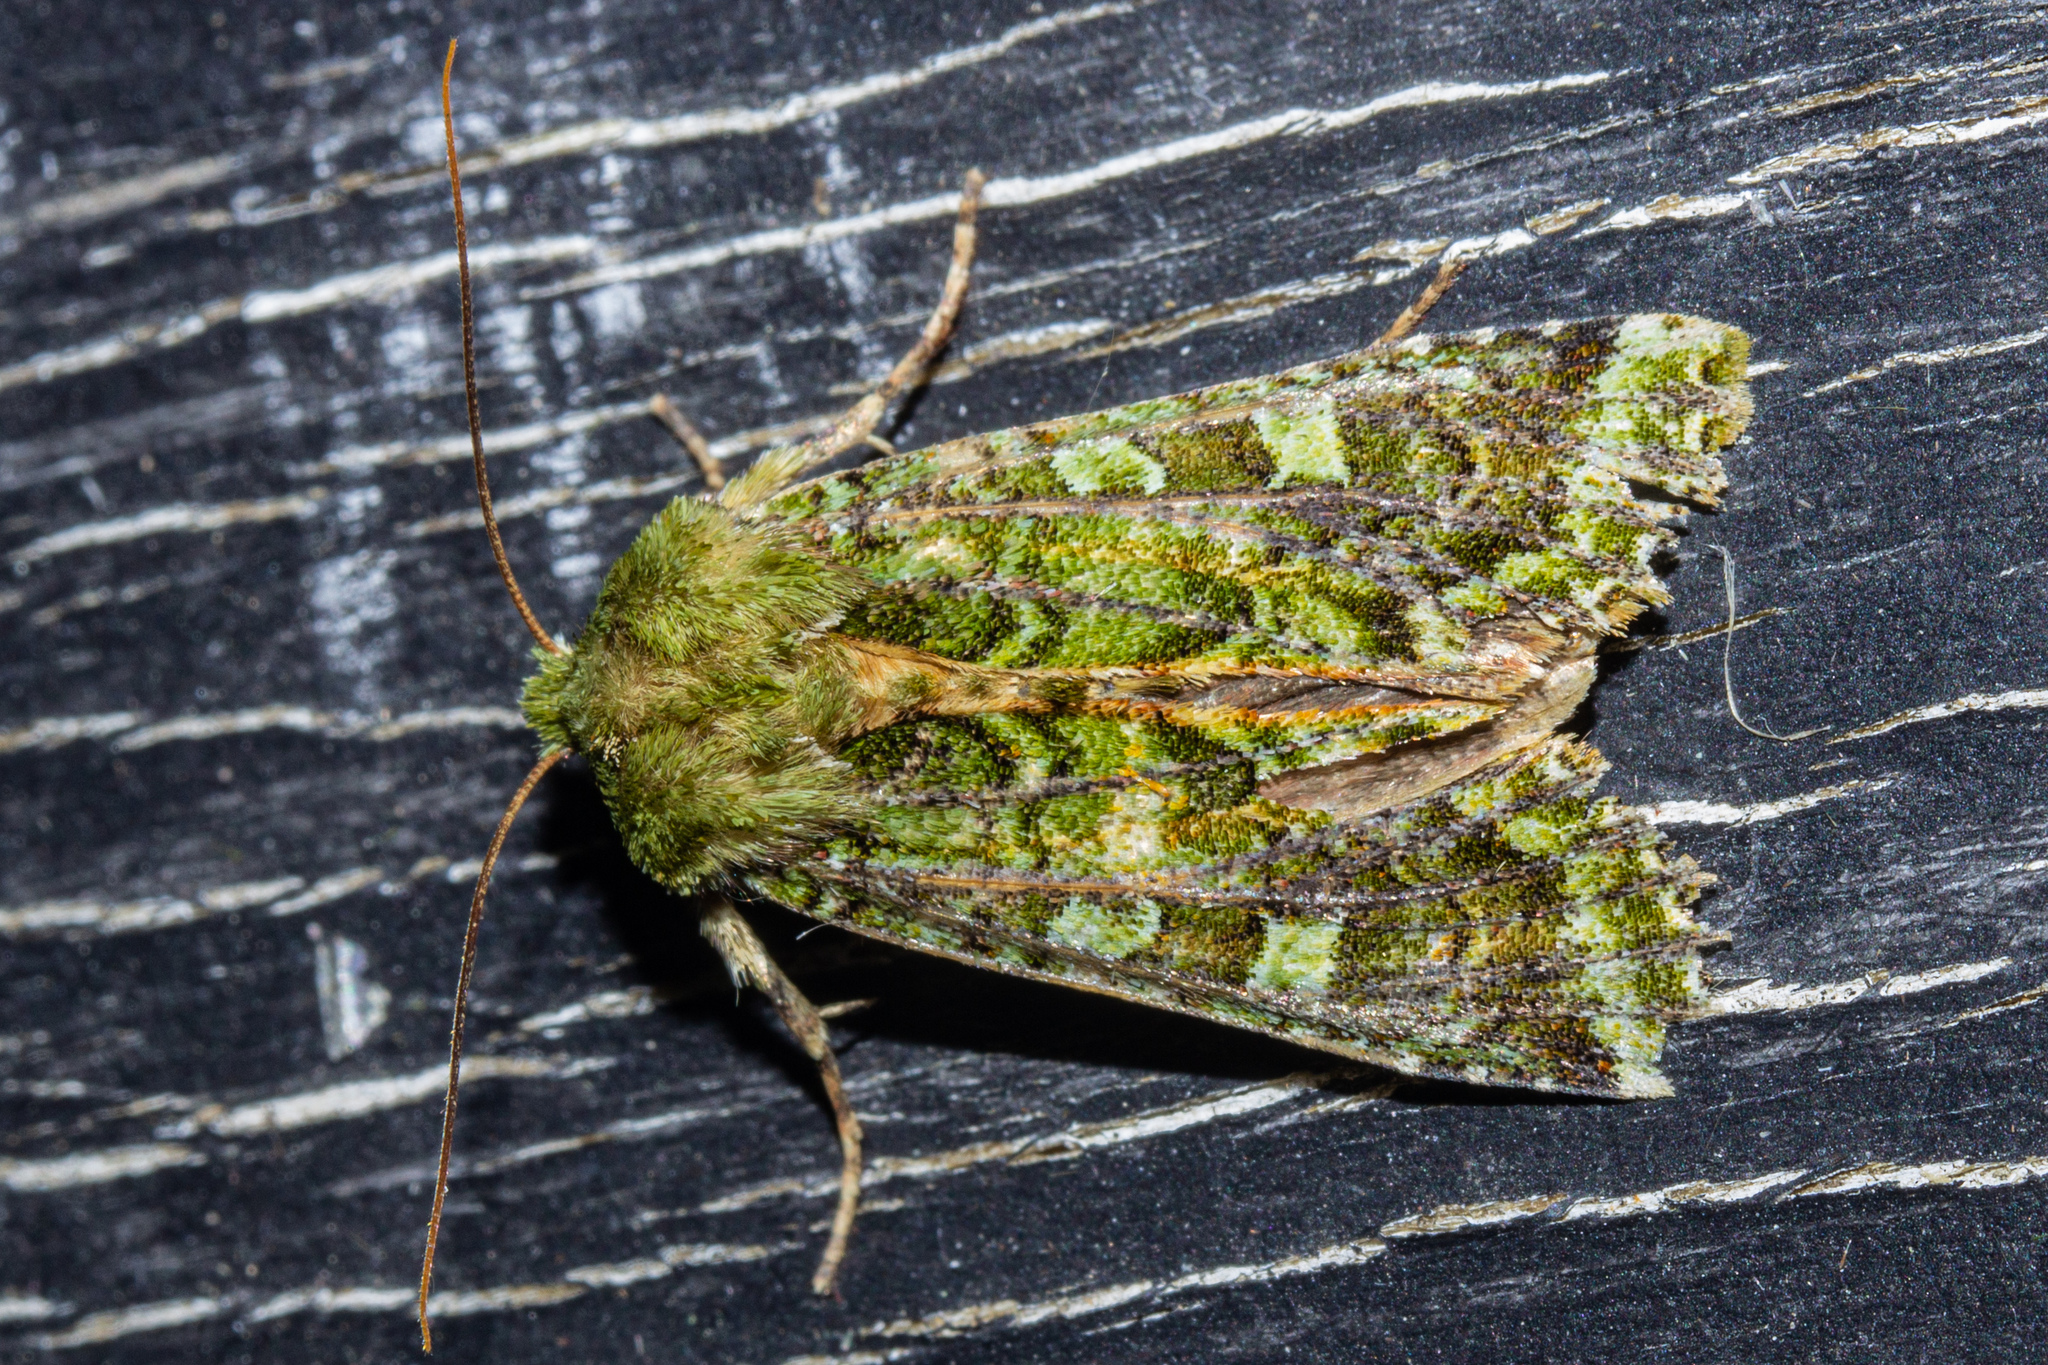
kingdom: Animalia
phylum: Arthropoda
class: Insecta
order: Lepidoptera
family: Noctuidae
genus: Feredayia
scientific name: Feredayia grammosa
